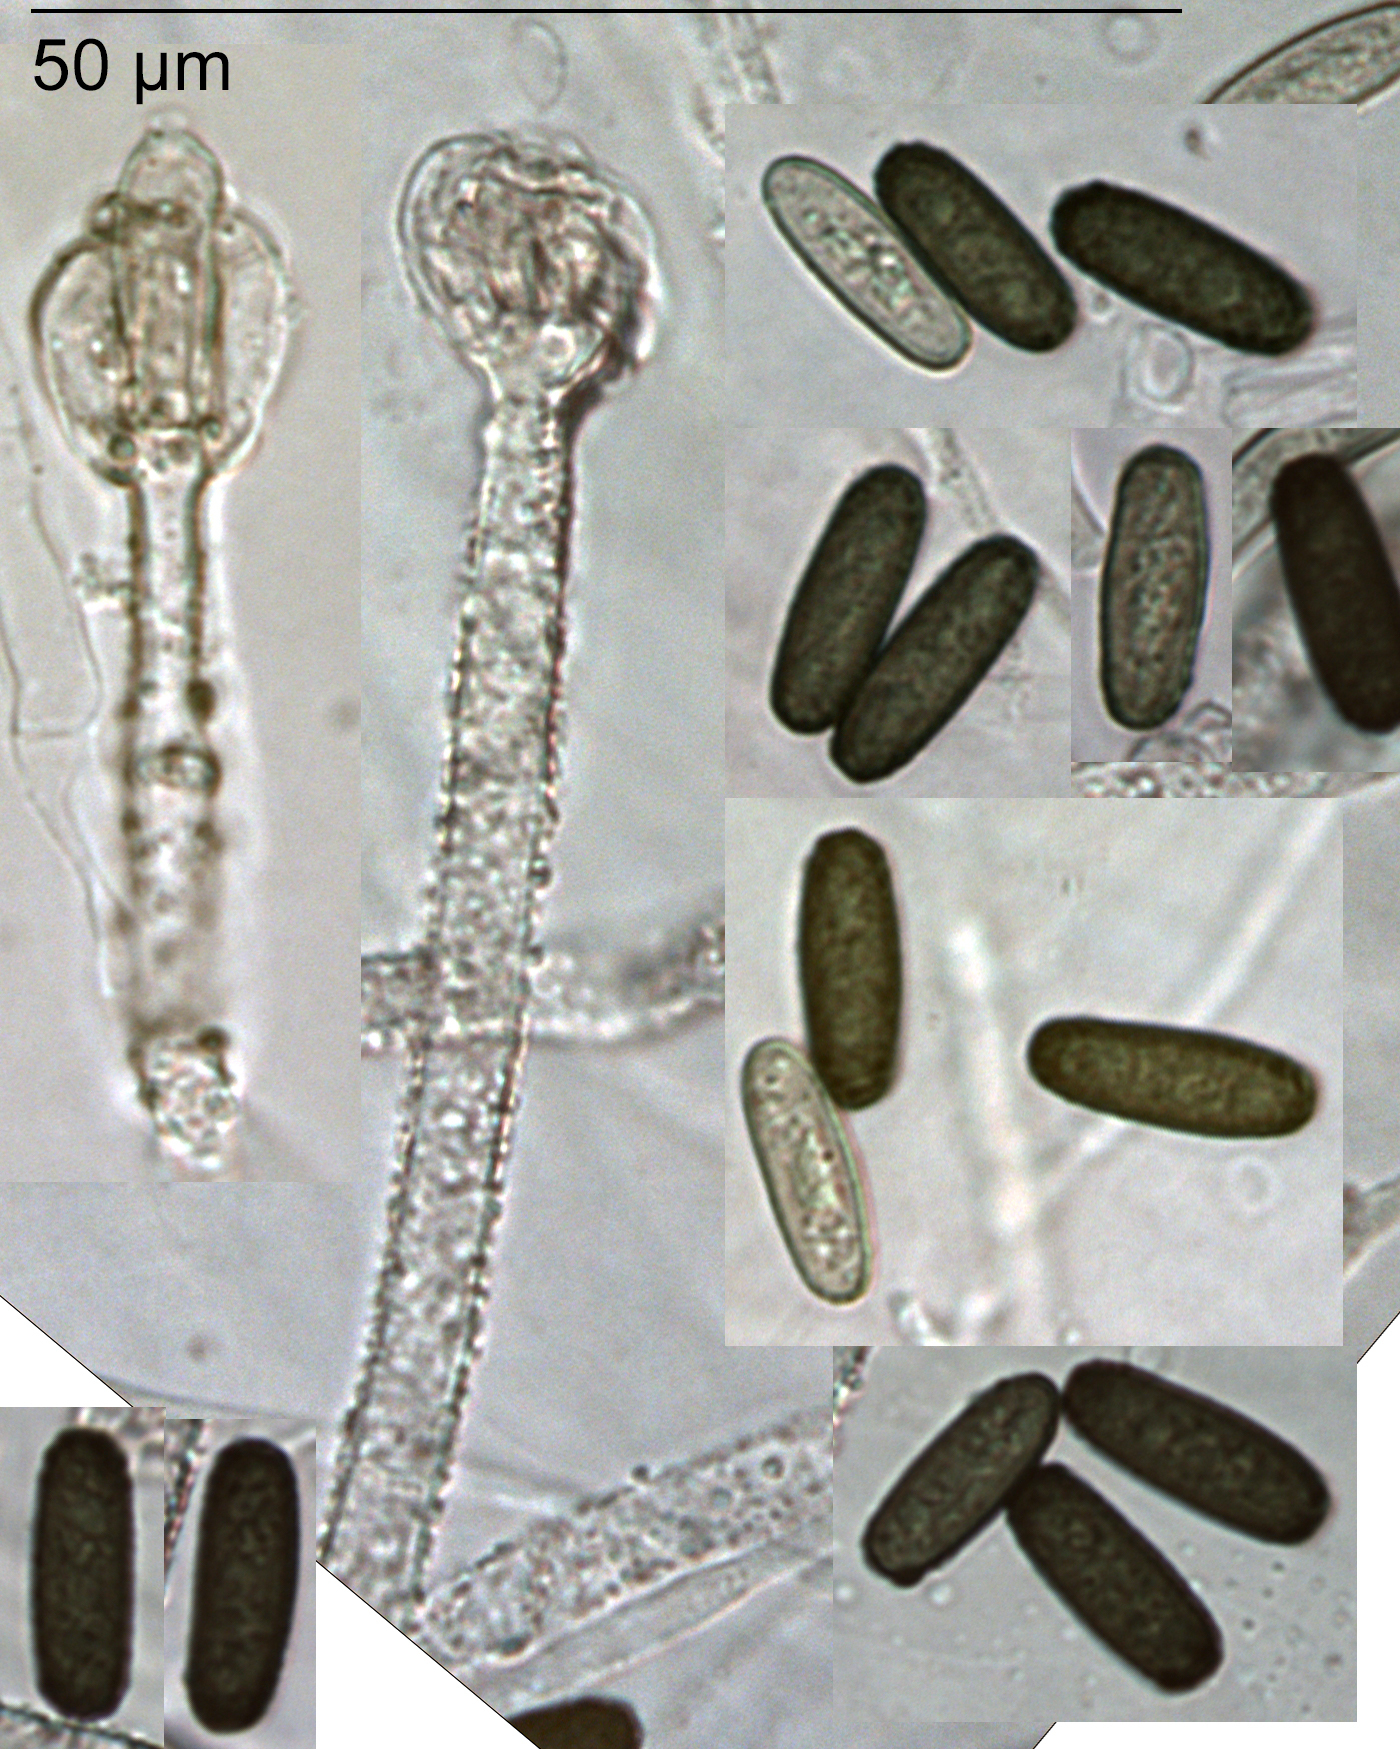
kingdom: Fungi
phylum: Ascomycota
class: Sordariomycetes
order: Hypocreales
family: Stachybotryaceae
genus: Stachybotrys
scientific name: Stachybotrys freycinetiae
